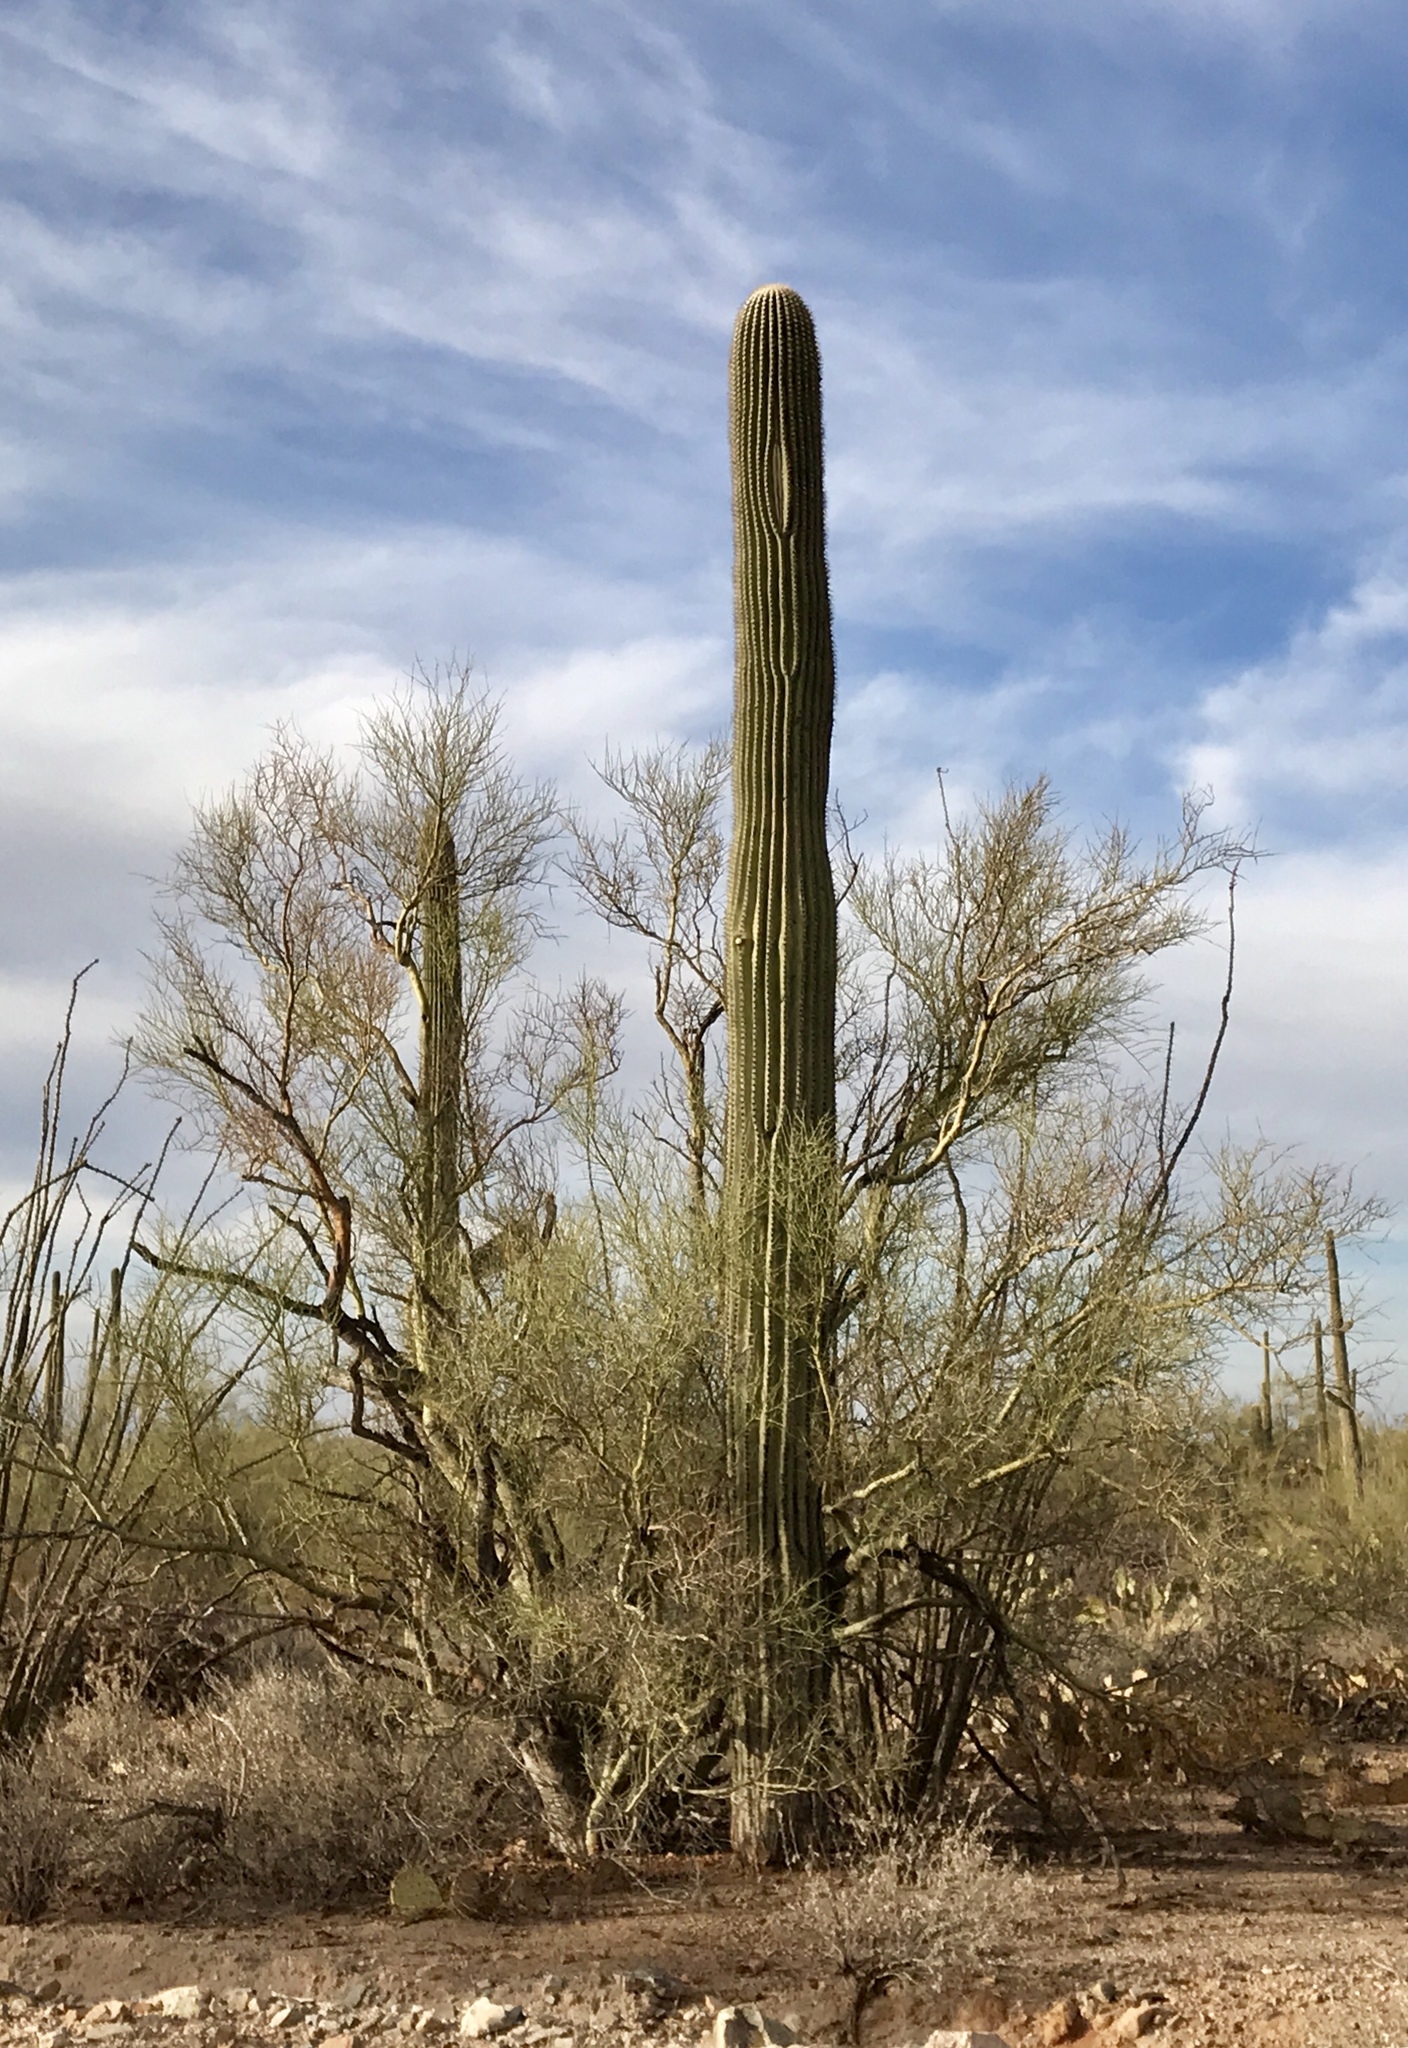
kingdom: Plantae
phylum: Tracheophyta
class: Magnoliopsida
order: Caryophyllales
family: Cactaceae
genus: Carnegiea
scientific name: Carnegiea gigantea
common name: Saguaro
